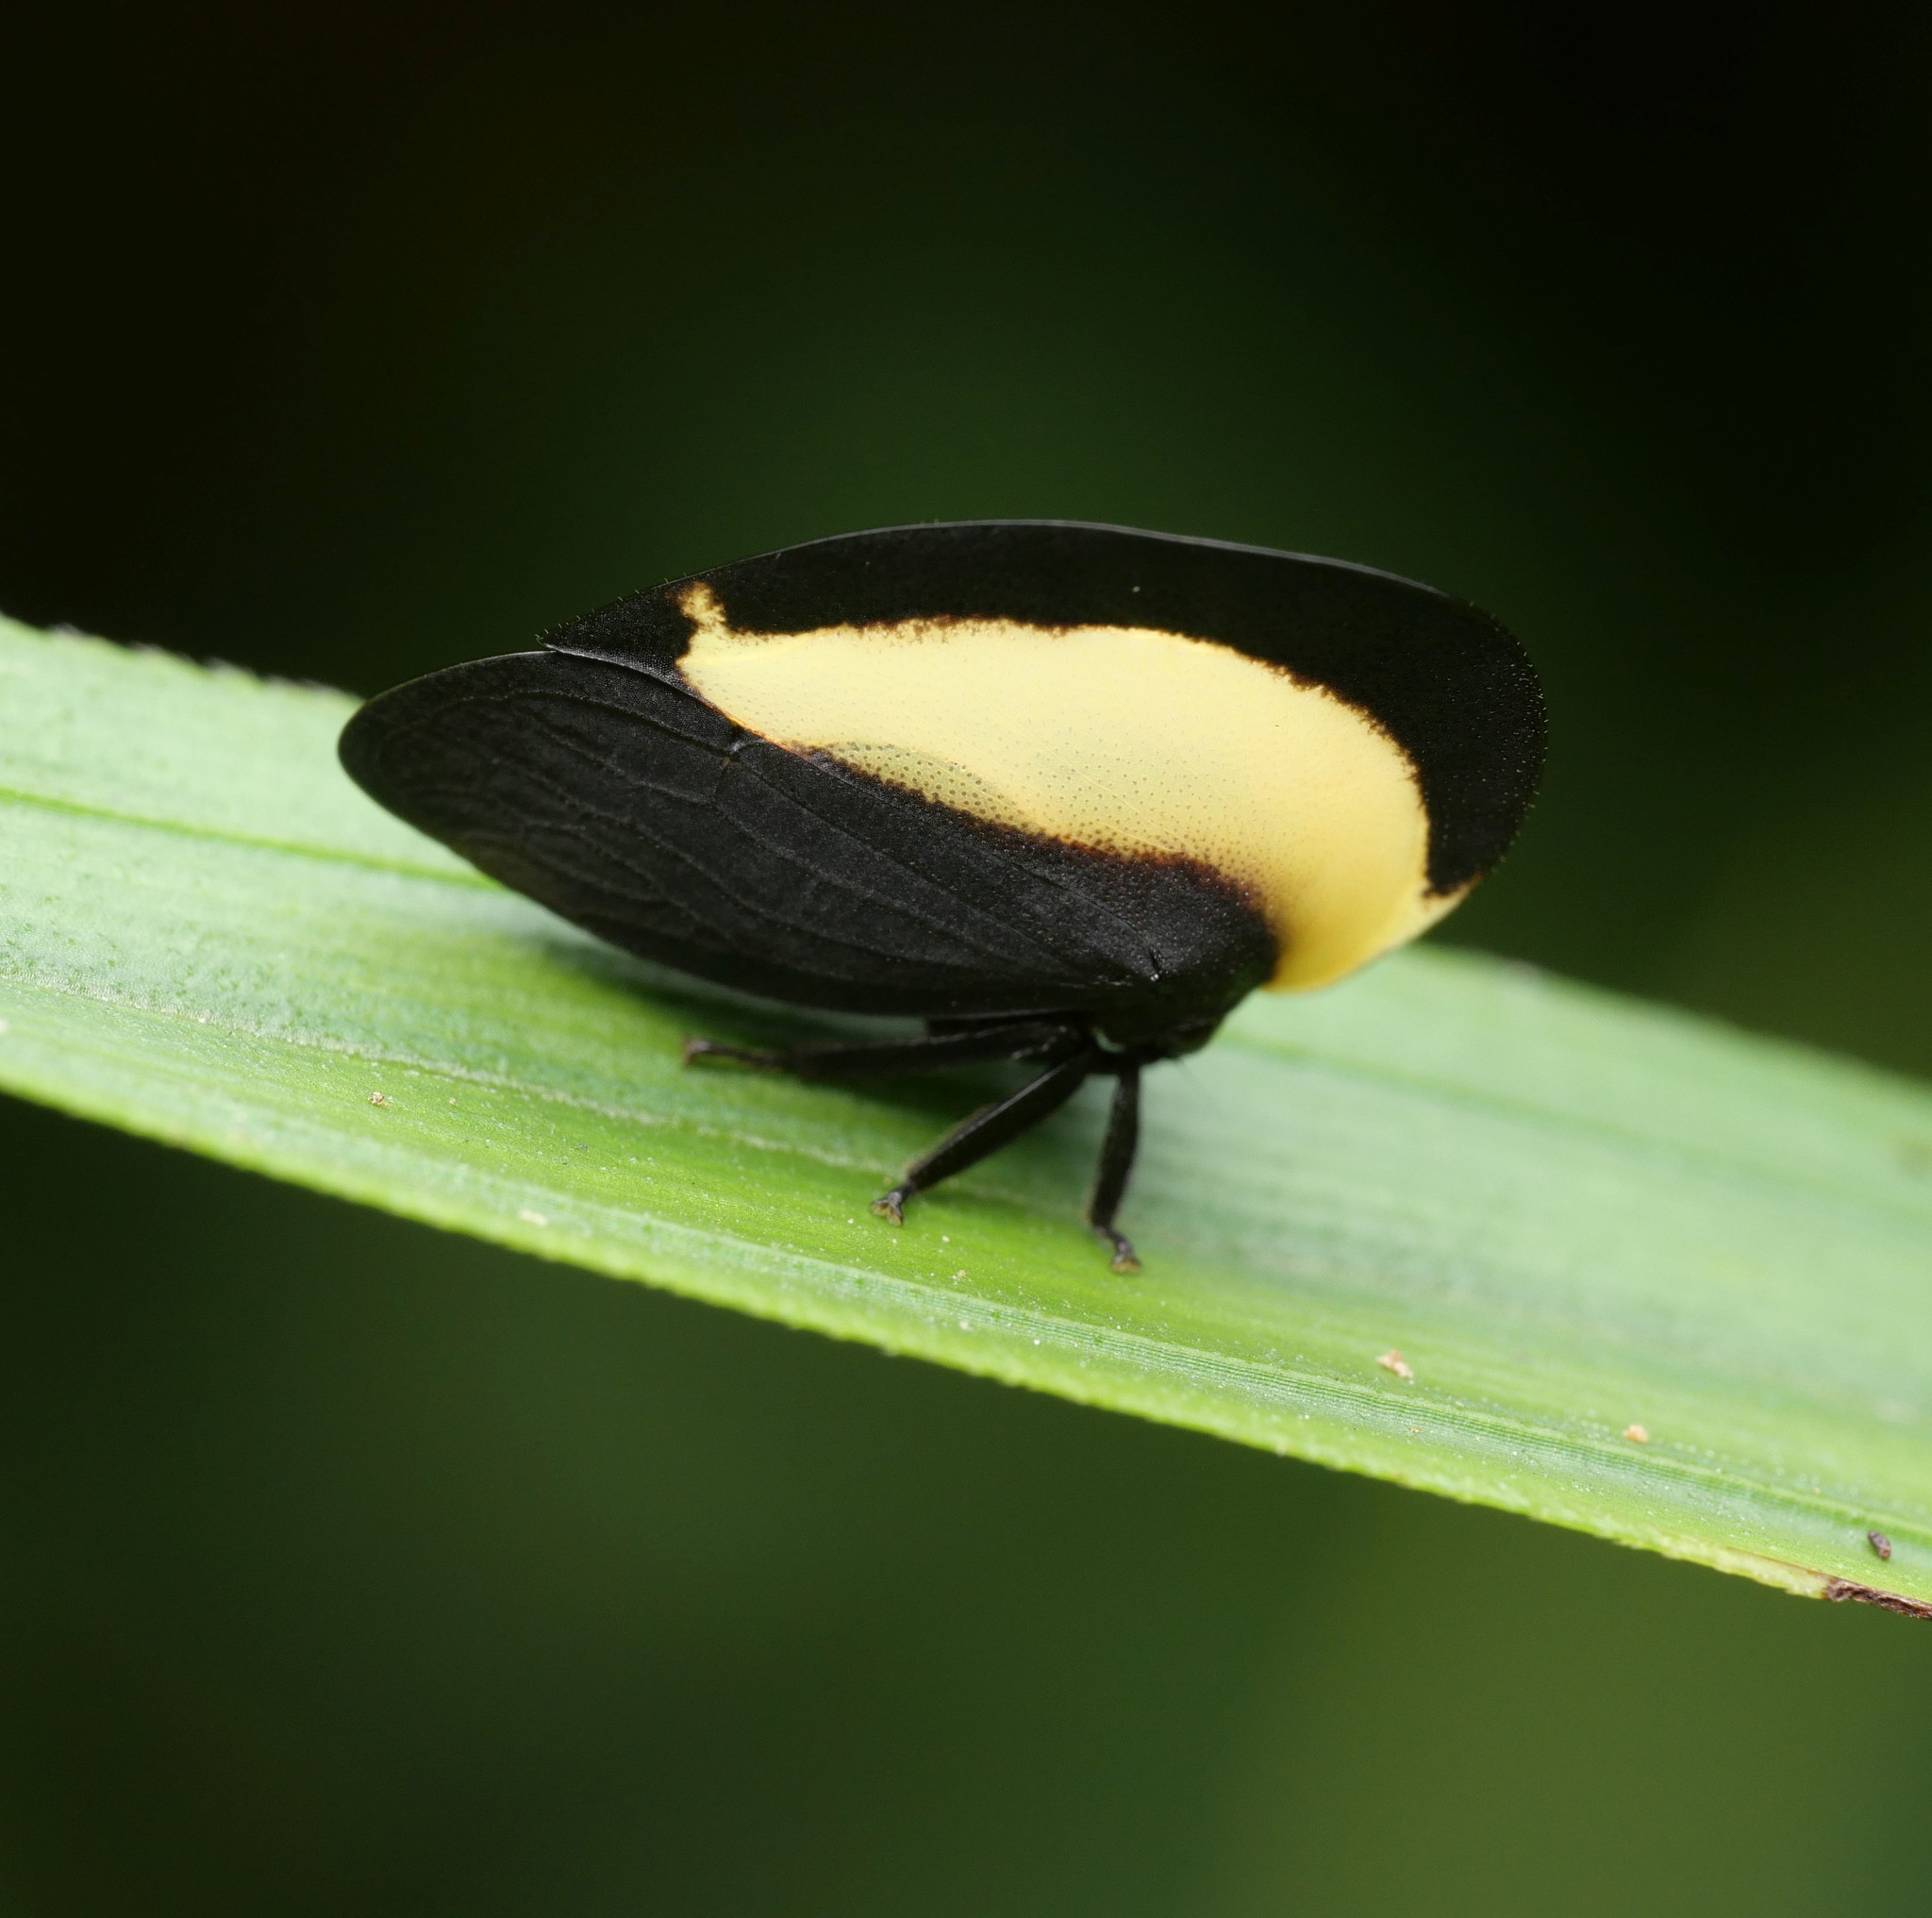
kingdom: Animalia
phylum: Arthropoda
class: Insecta
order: Hemiptera
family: Membracidae
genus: Membracis
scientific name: Membracis foliataarcuata
